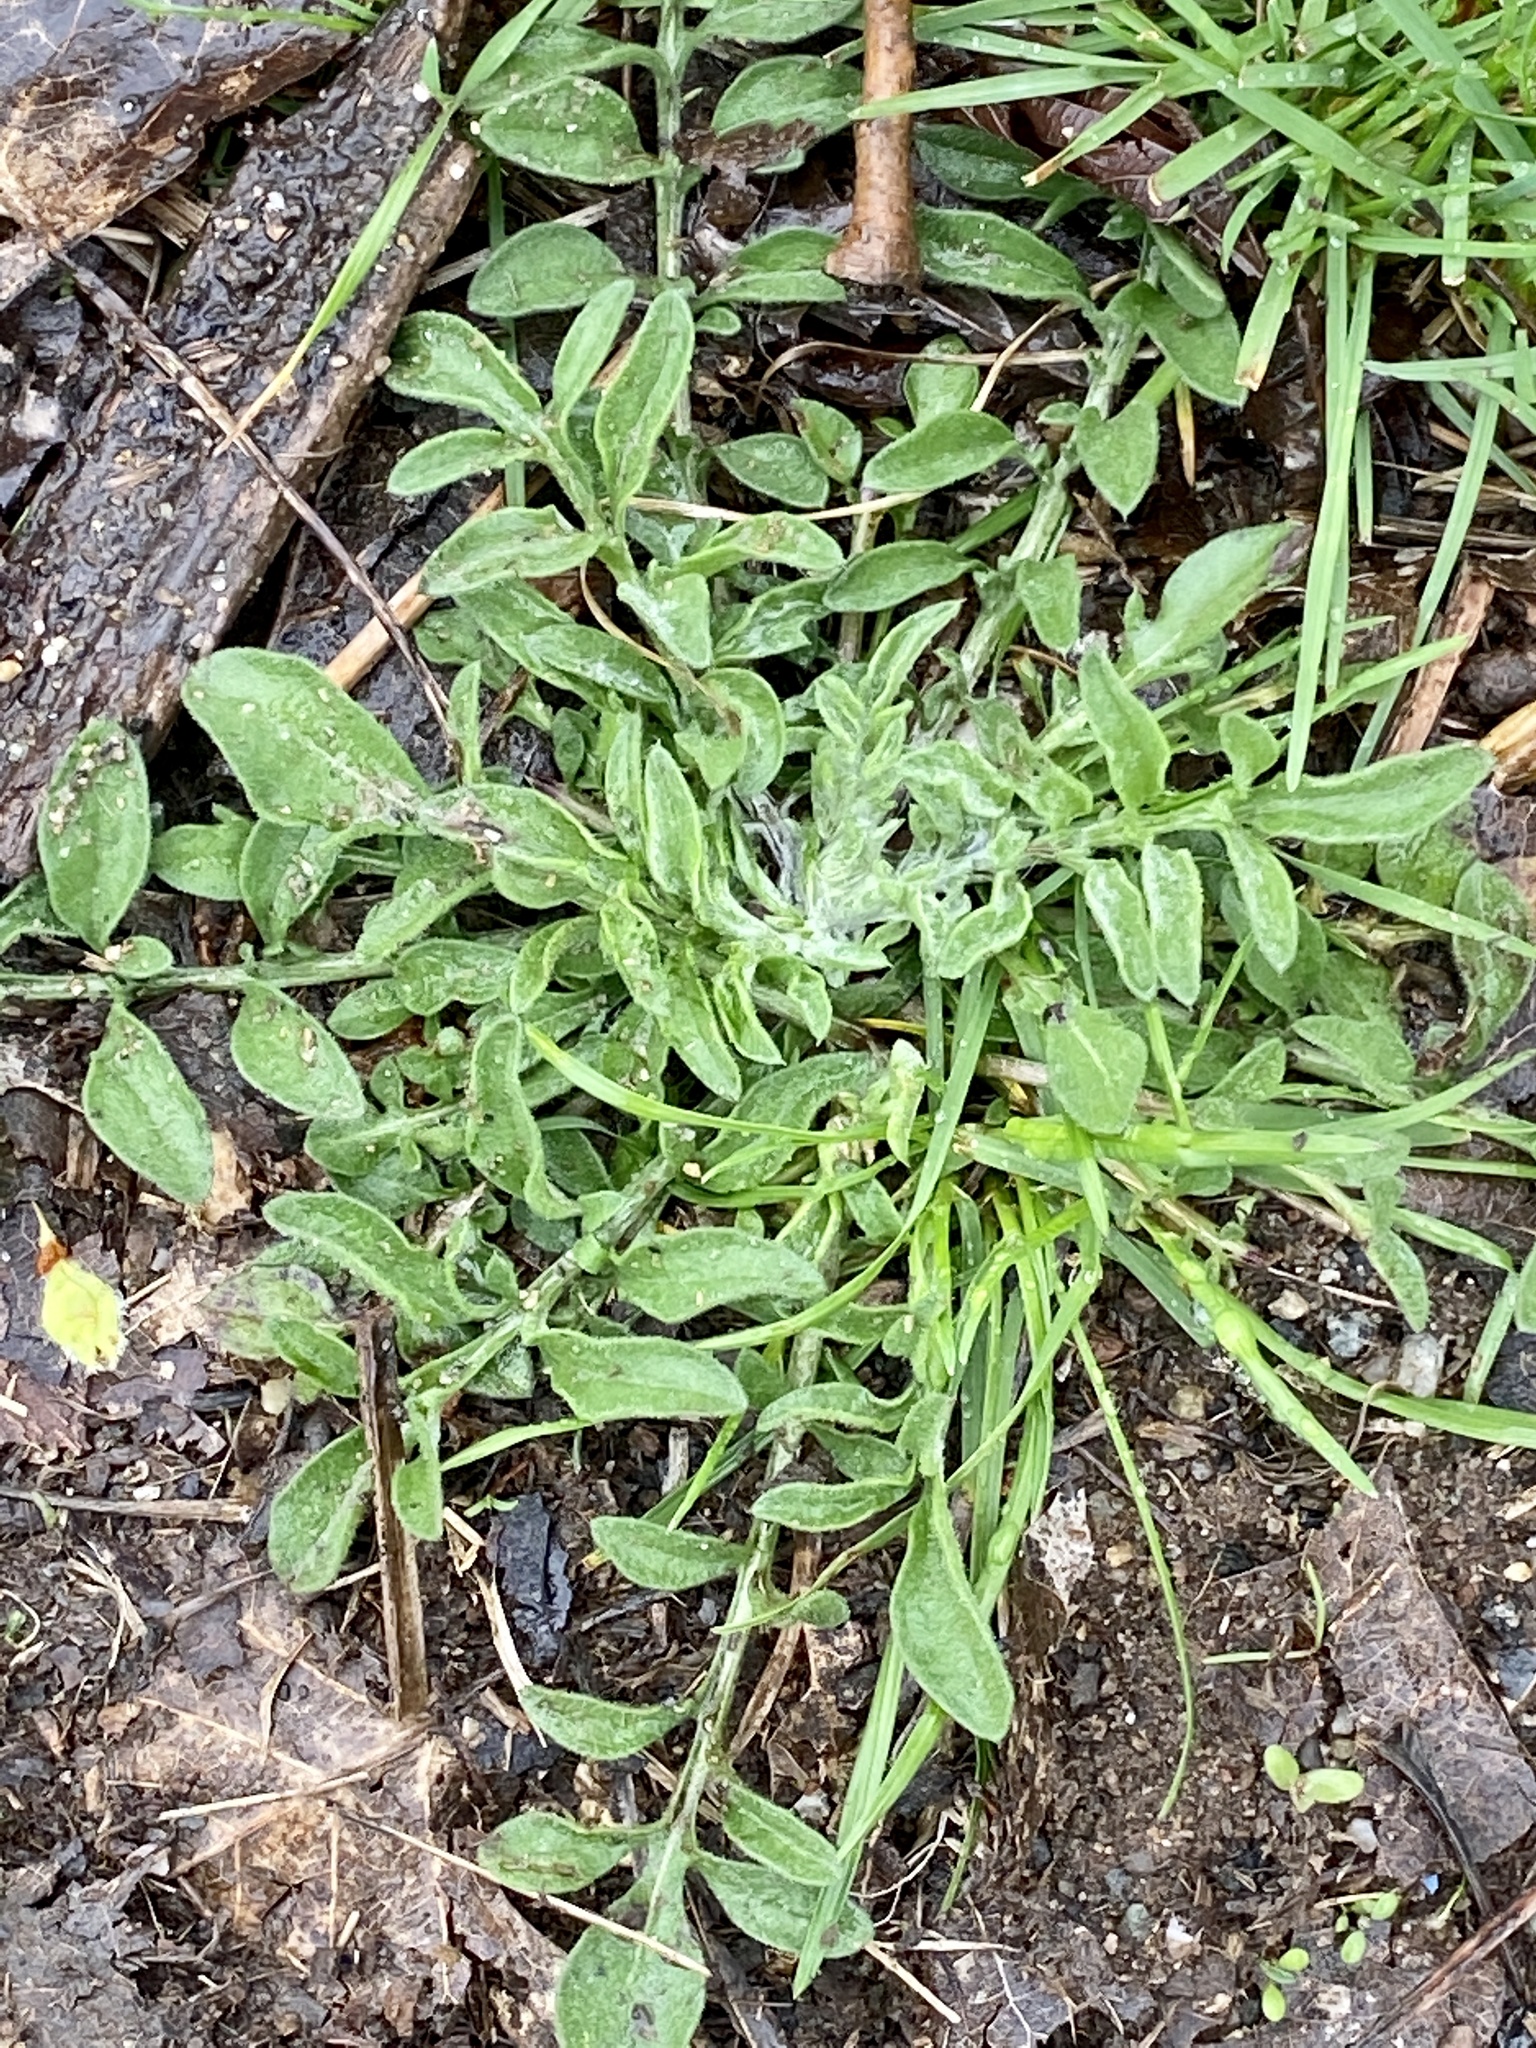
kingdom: Plantae
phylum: Tracheophyta
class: Magnoliopsida
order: Asterales
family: Asteraceae
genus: Centaurea
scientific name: Centaurea stoebe
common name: Spotted knapweed
